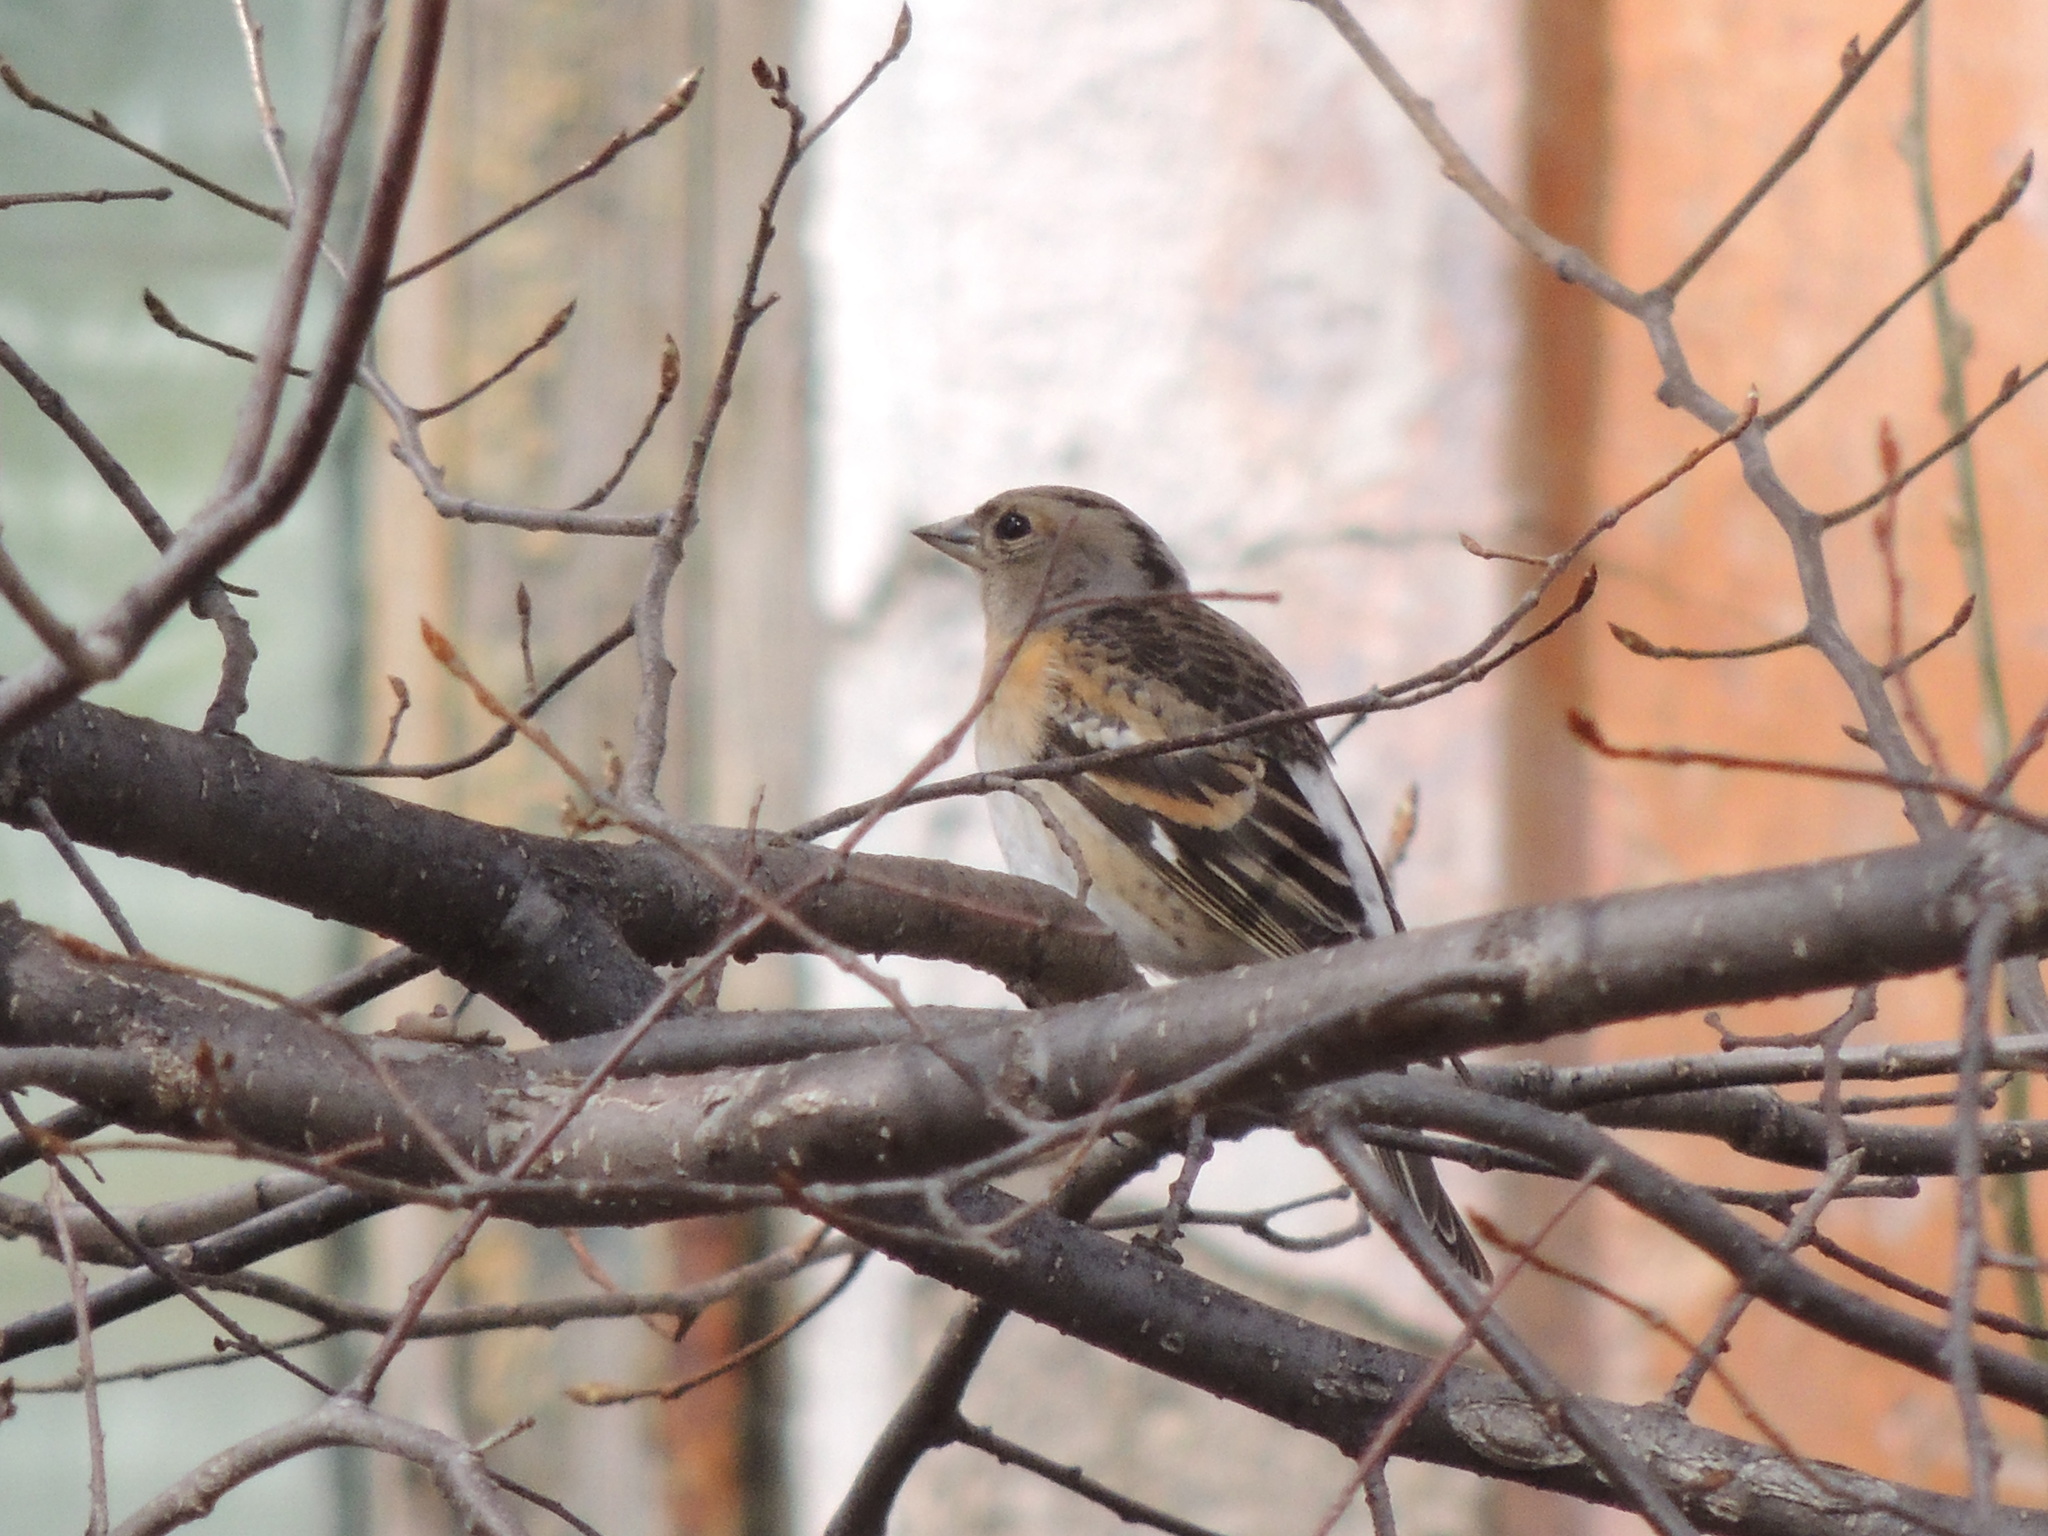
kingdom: Animalia
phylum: Chordata
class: Aves
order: Passeriformes
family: Fringillidae
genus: Fringilla
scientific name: Fringilla montifringilla
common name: Brambling
